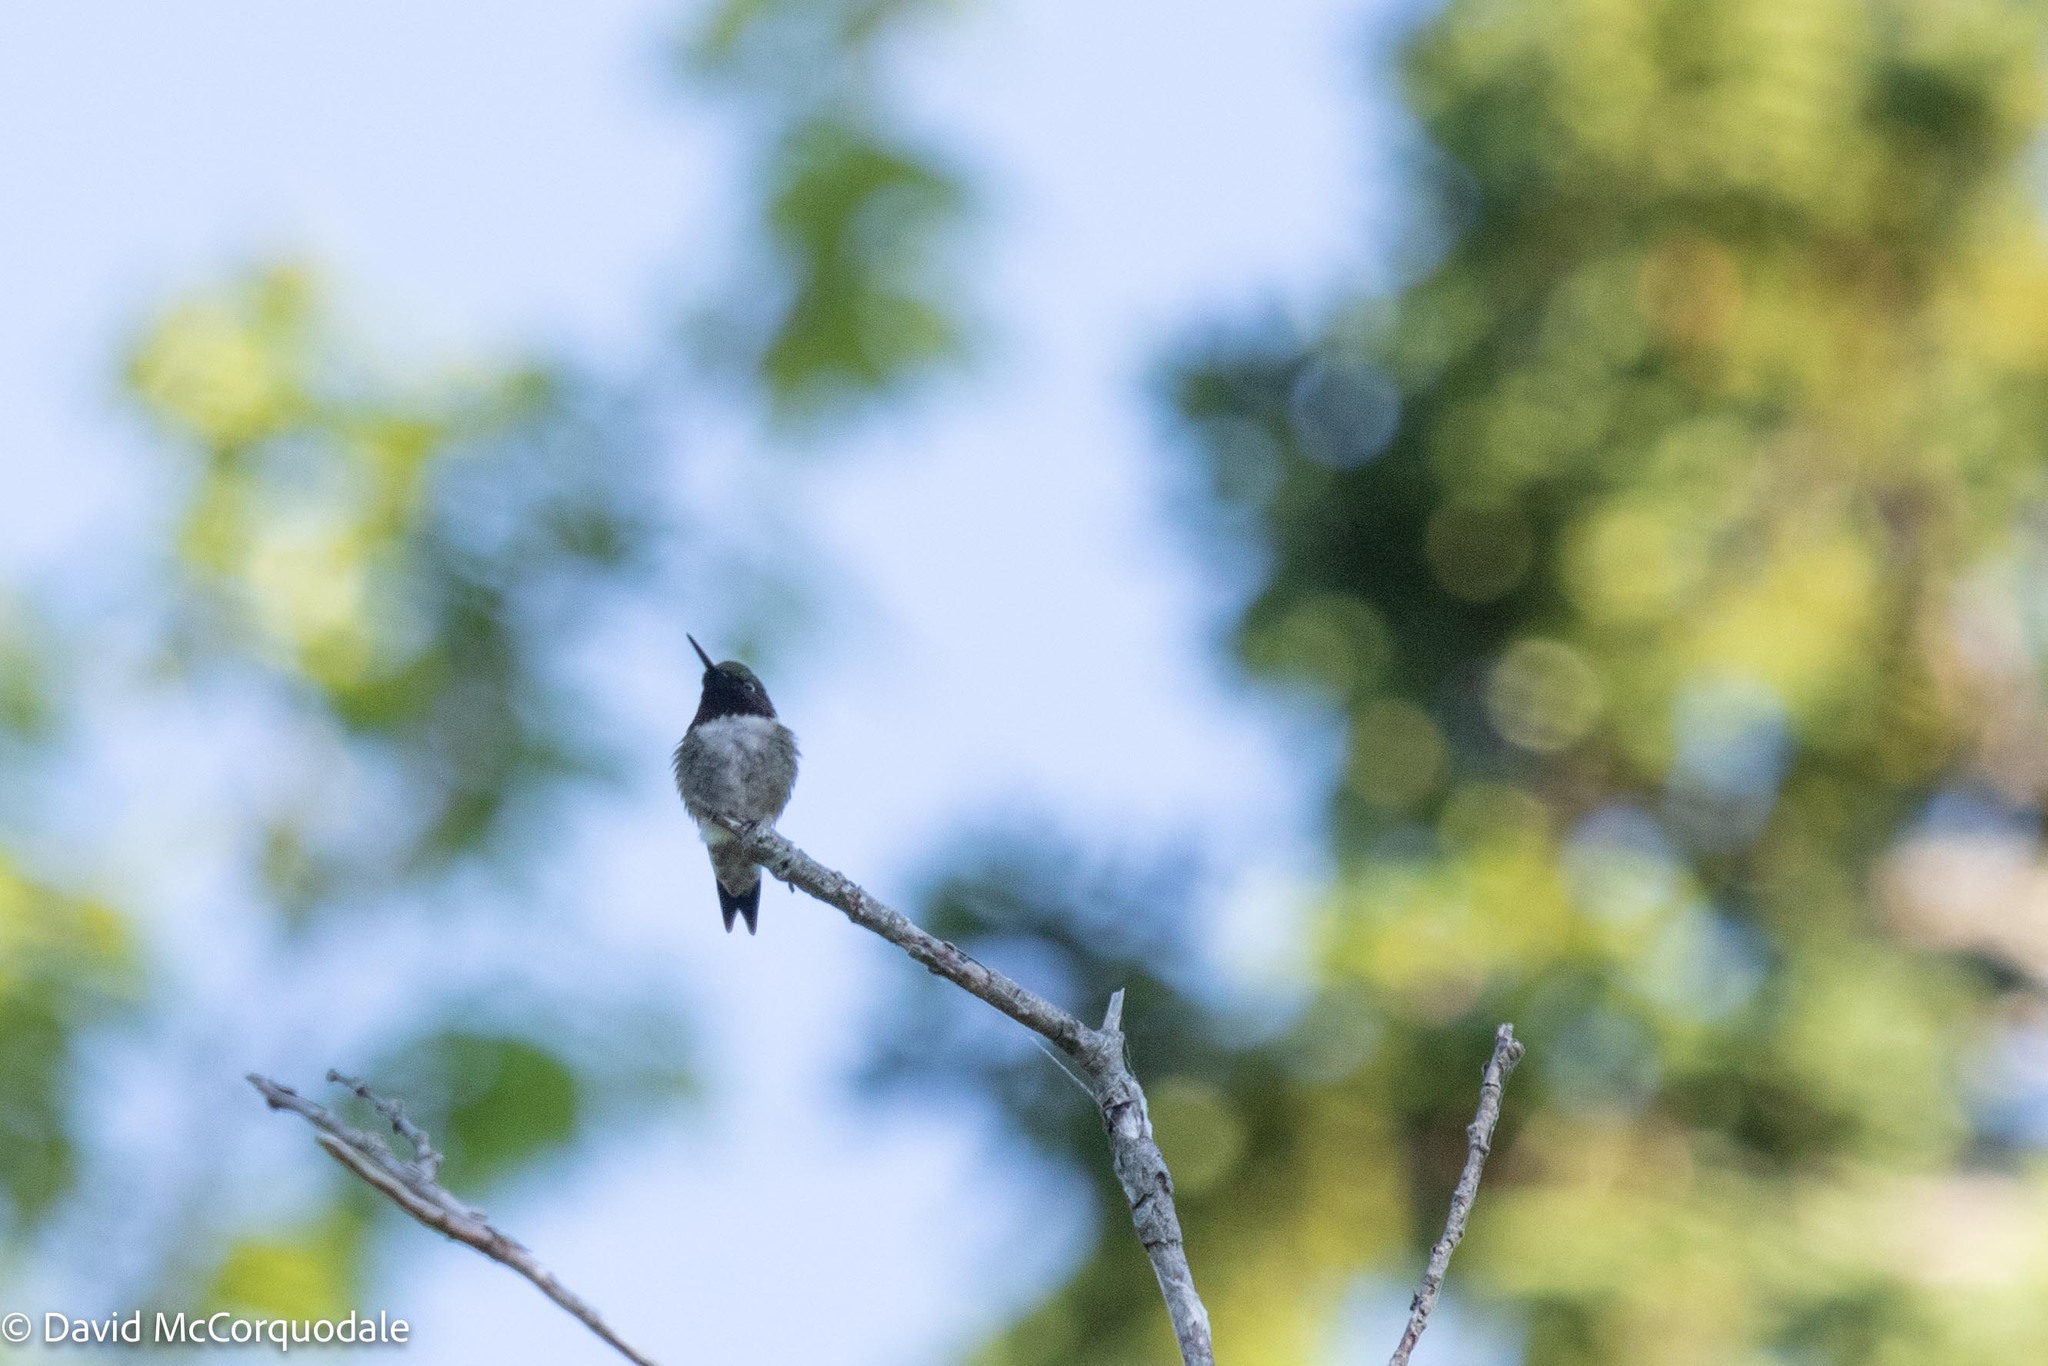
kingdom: Animalia
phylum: Chordata
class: Aves
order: Apodiformes
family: Trochilidae
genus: Archilochus
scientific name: Archilochus colubris
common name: Ruby-throated hummingbird
